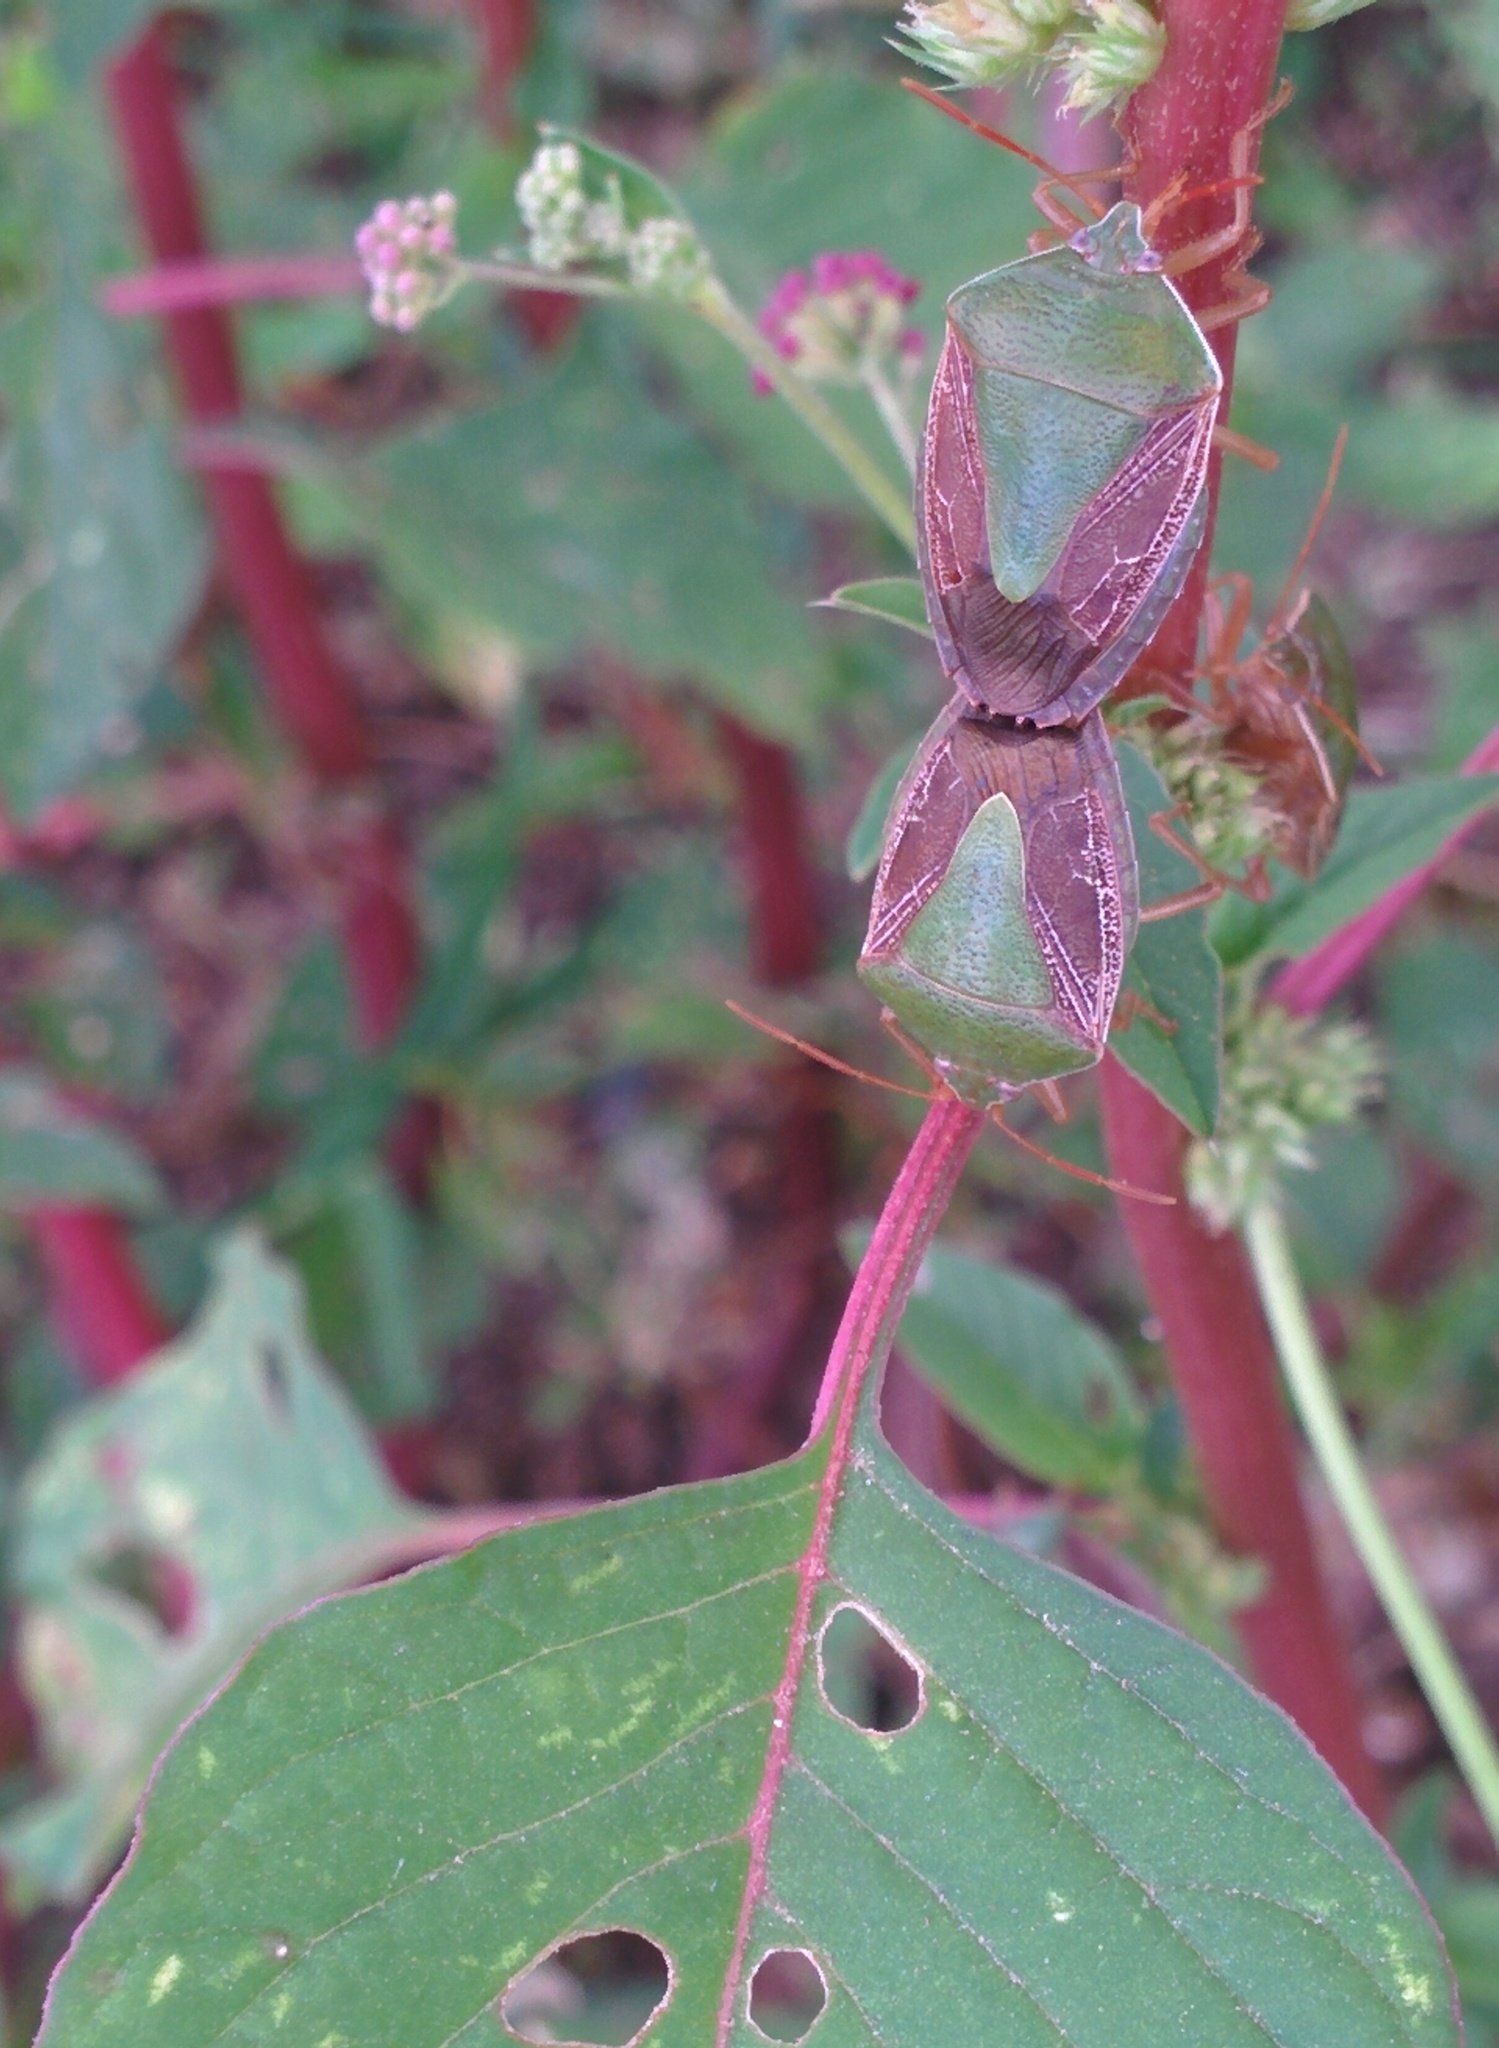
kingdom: Animalia
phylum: Arthropoda
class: Insecta
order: Hemiptera
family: Pentatomidae
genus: Edessa
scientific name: Edessa meditabunda
